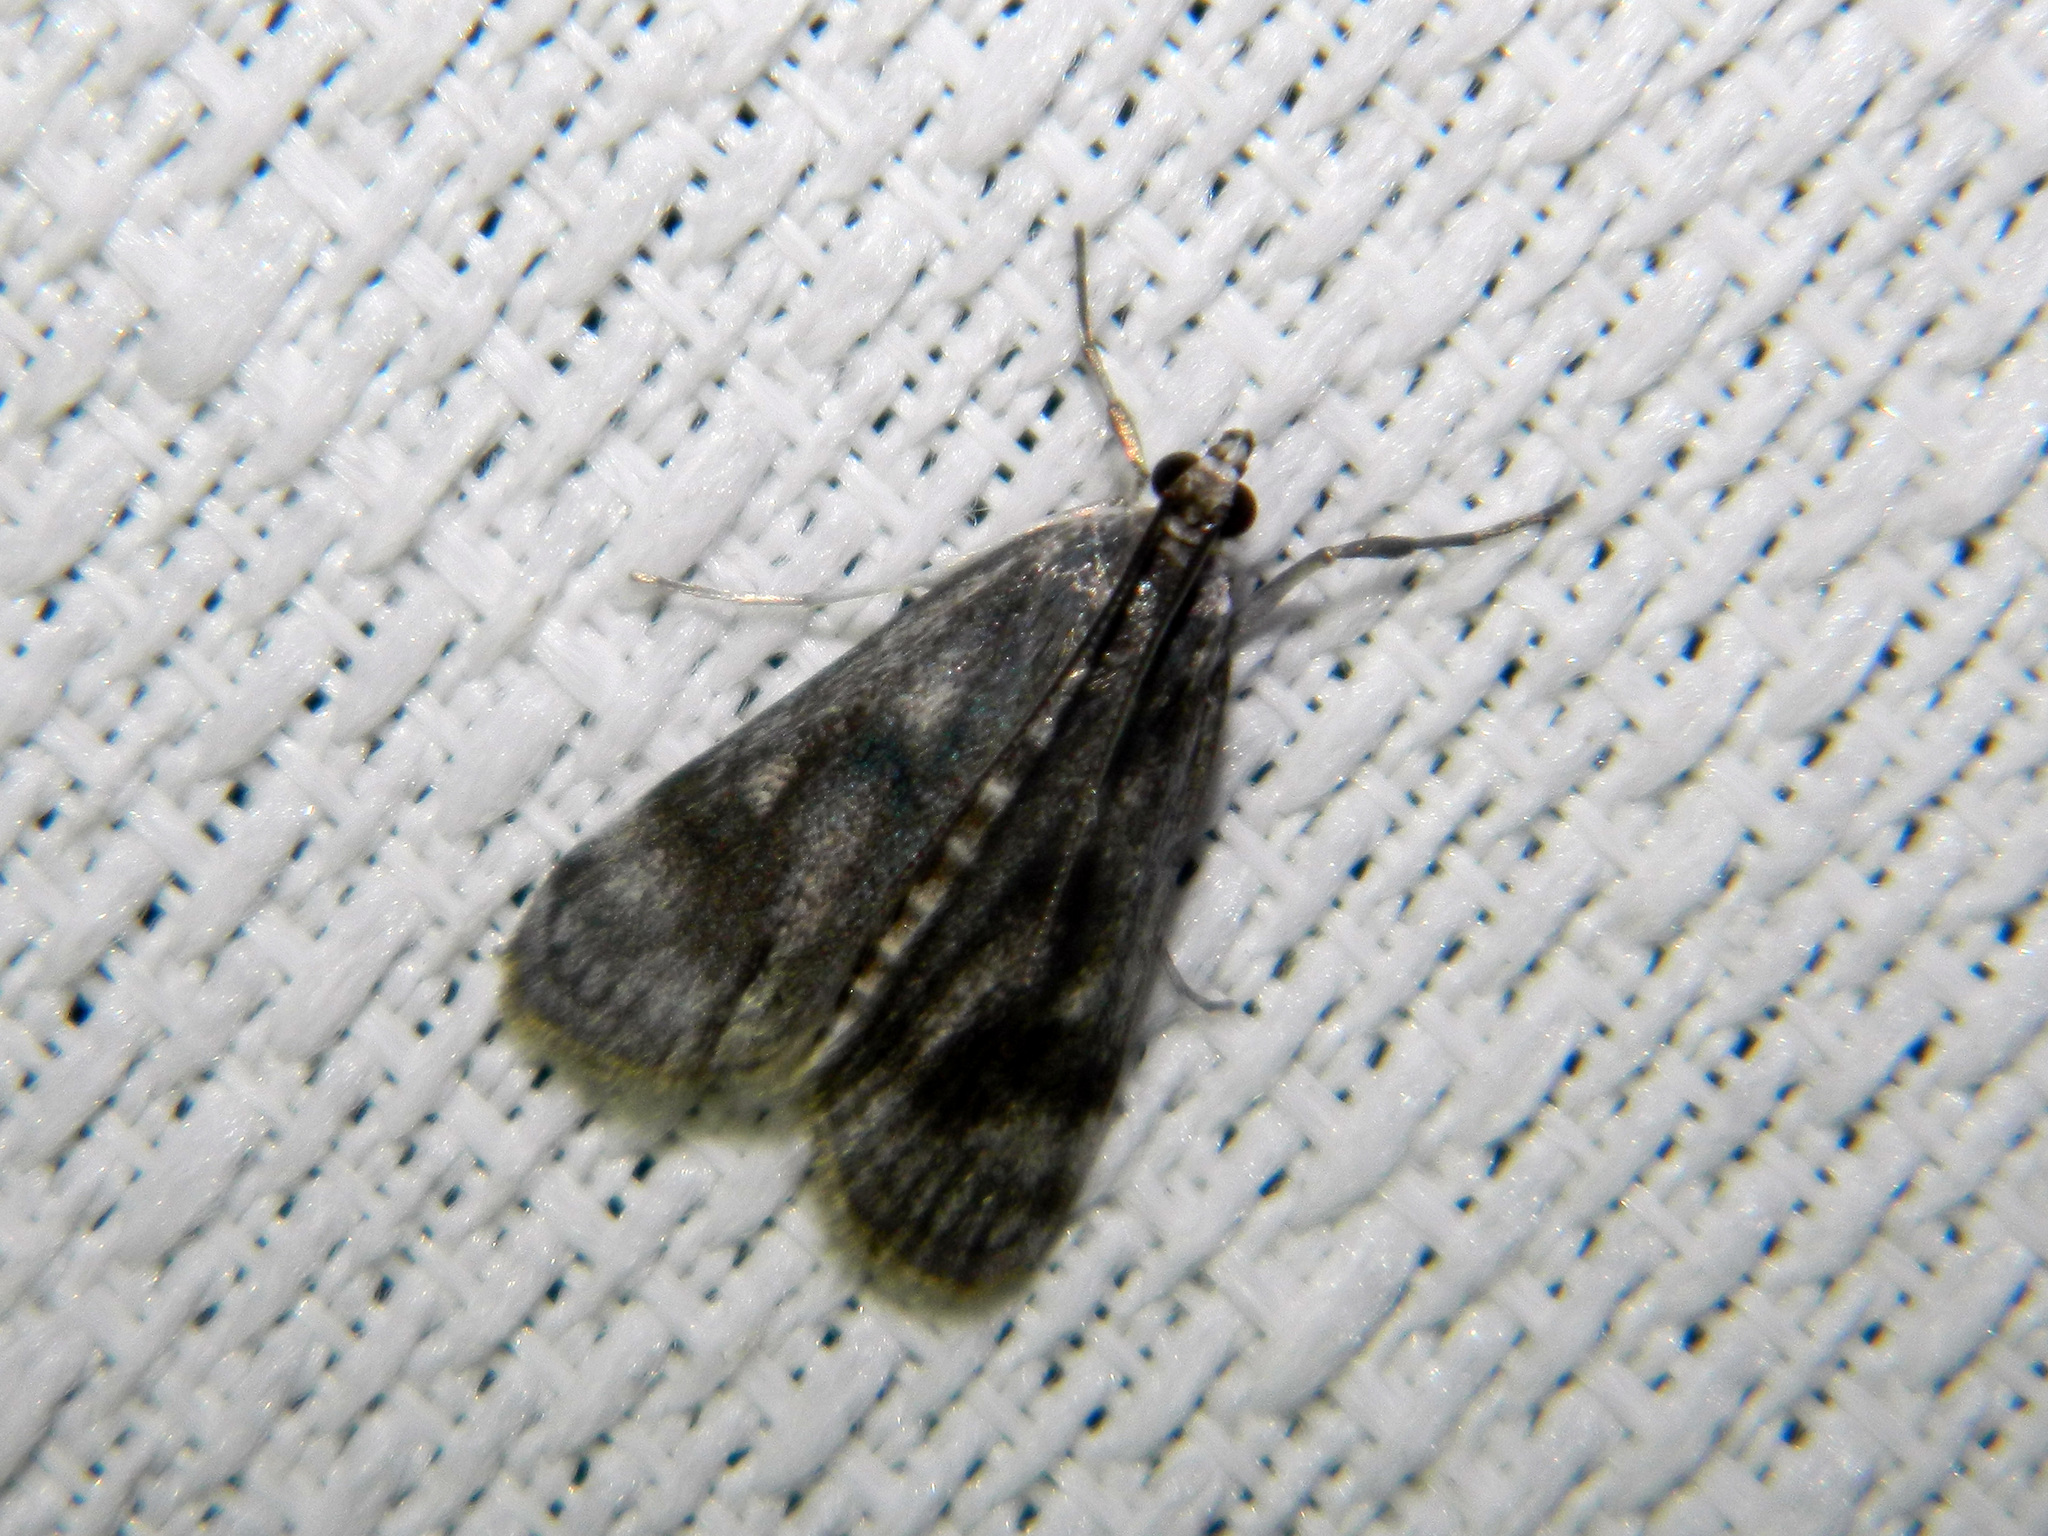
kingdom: Animalia
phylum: Arthropoda
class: Insecta
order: Lepidoptera
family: Crambidae
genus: Parapoynx
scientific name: Parapoynx maculalis
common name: Polymorphic pondweed moth
